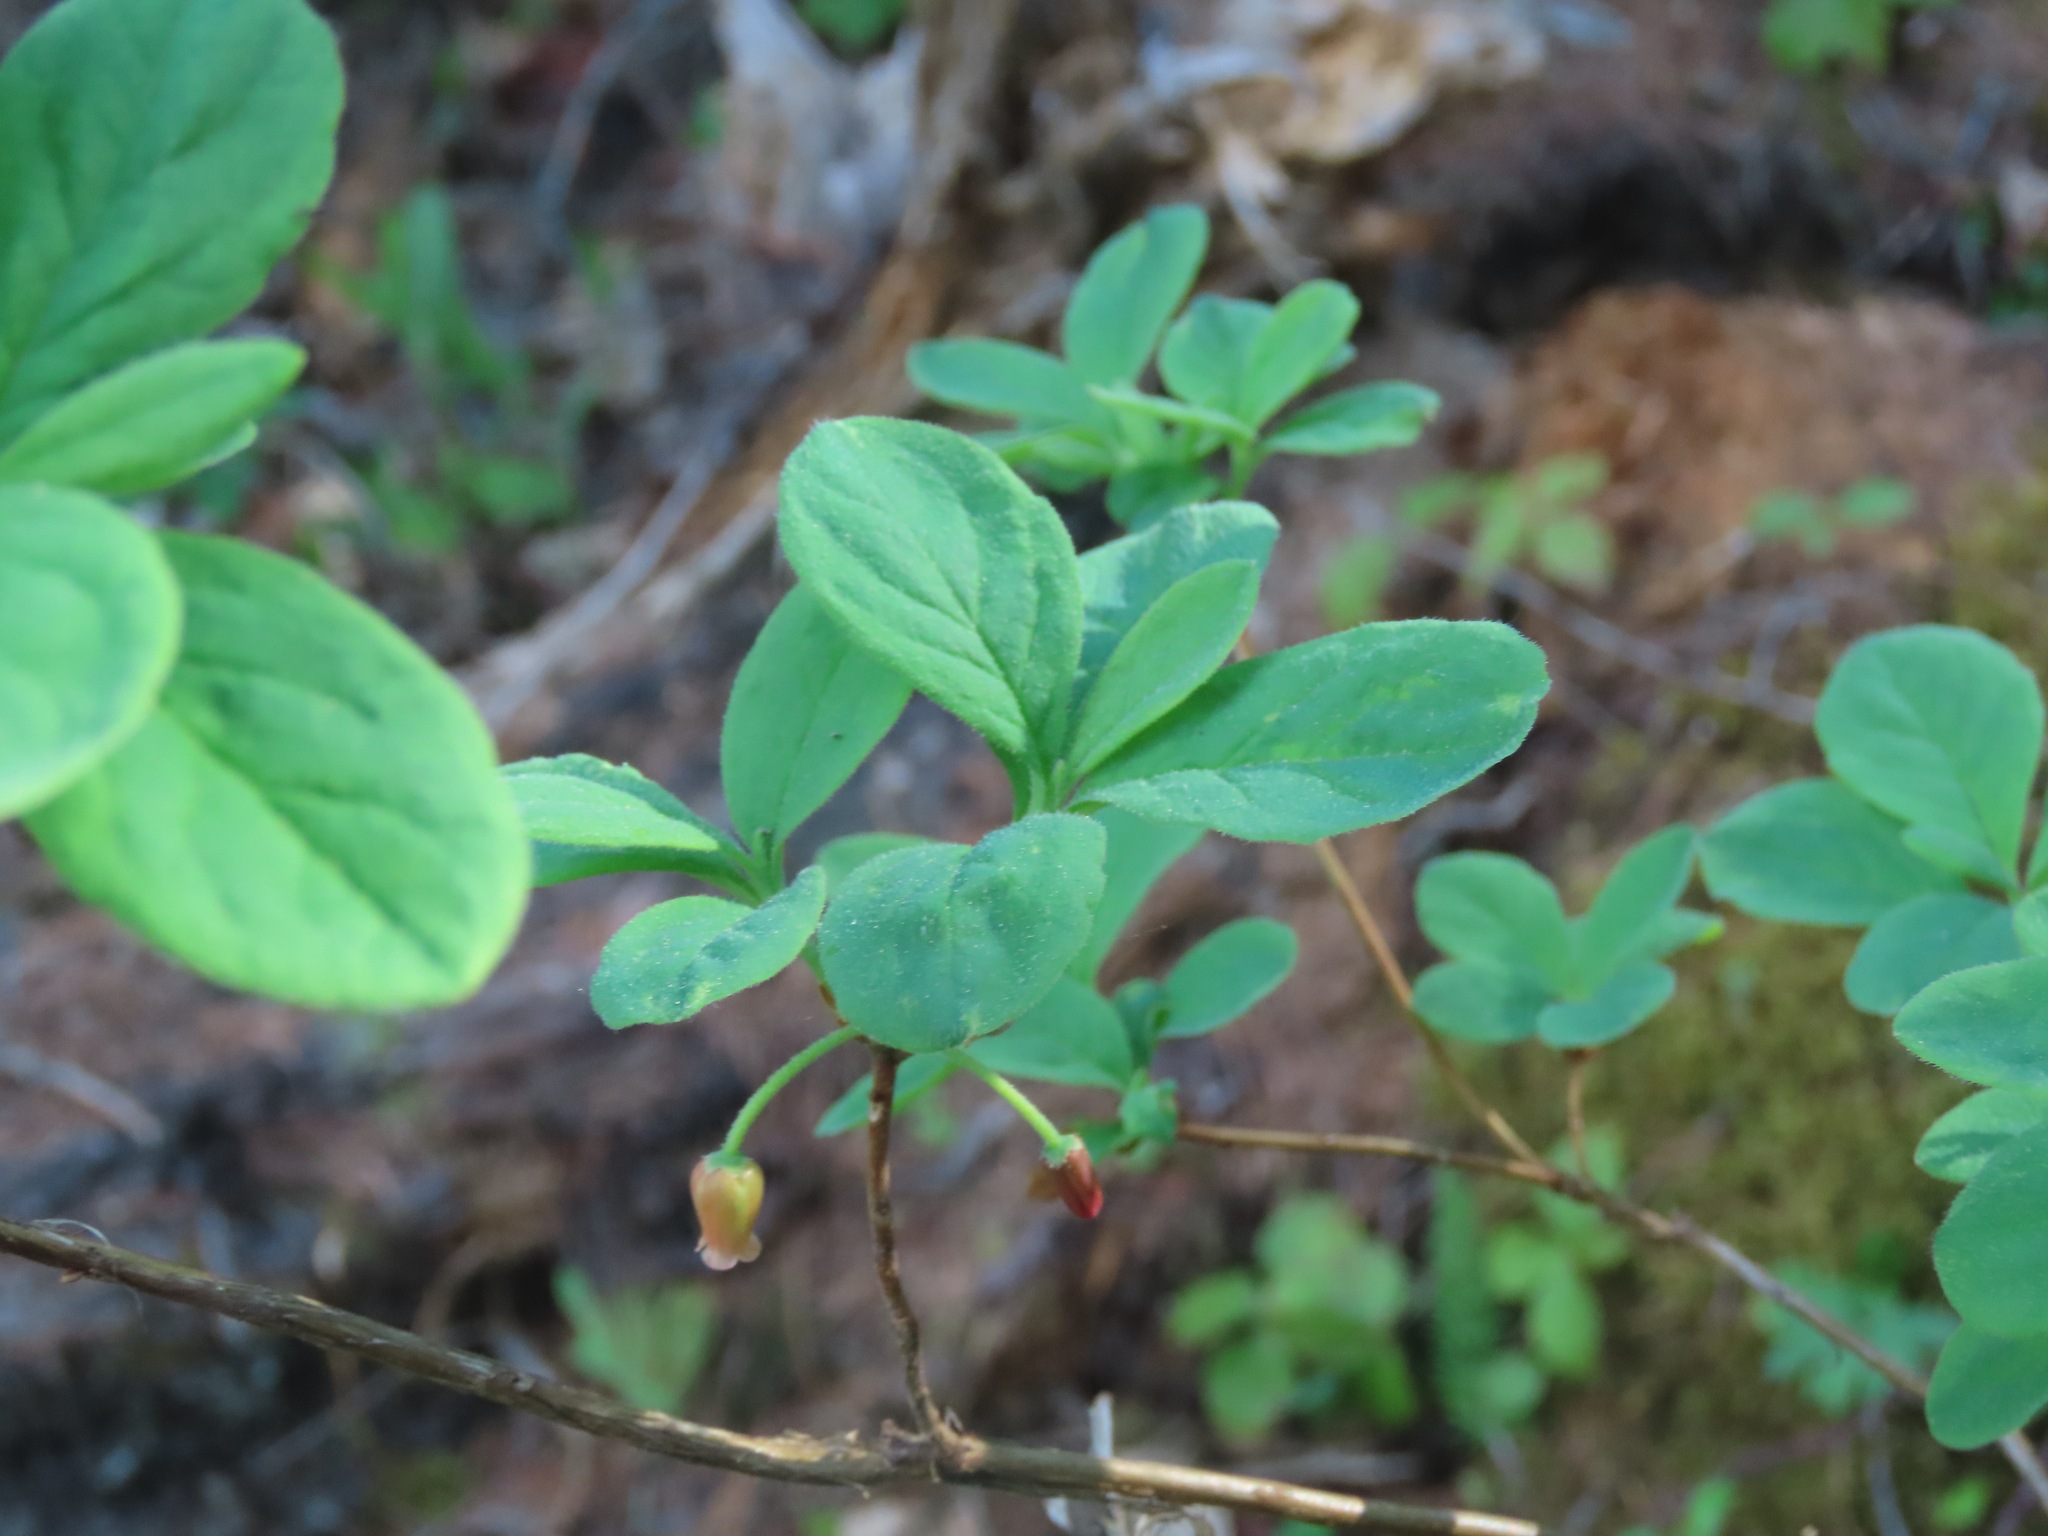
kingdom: Plantae
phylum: Tracheophyta
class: Magnoliopsida
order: Ericales
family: Ericaceae
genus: Rhododendron
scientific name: Rhododendron menziesii
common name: Pacific menziesia
